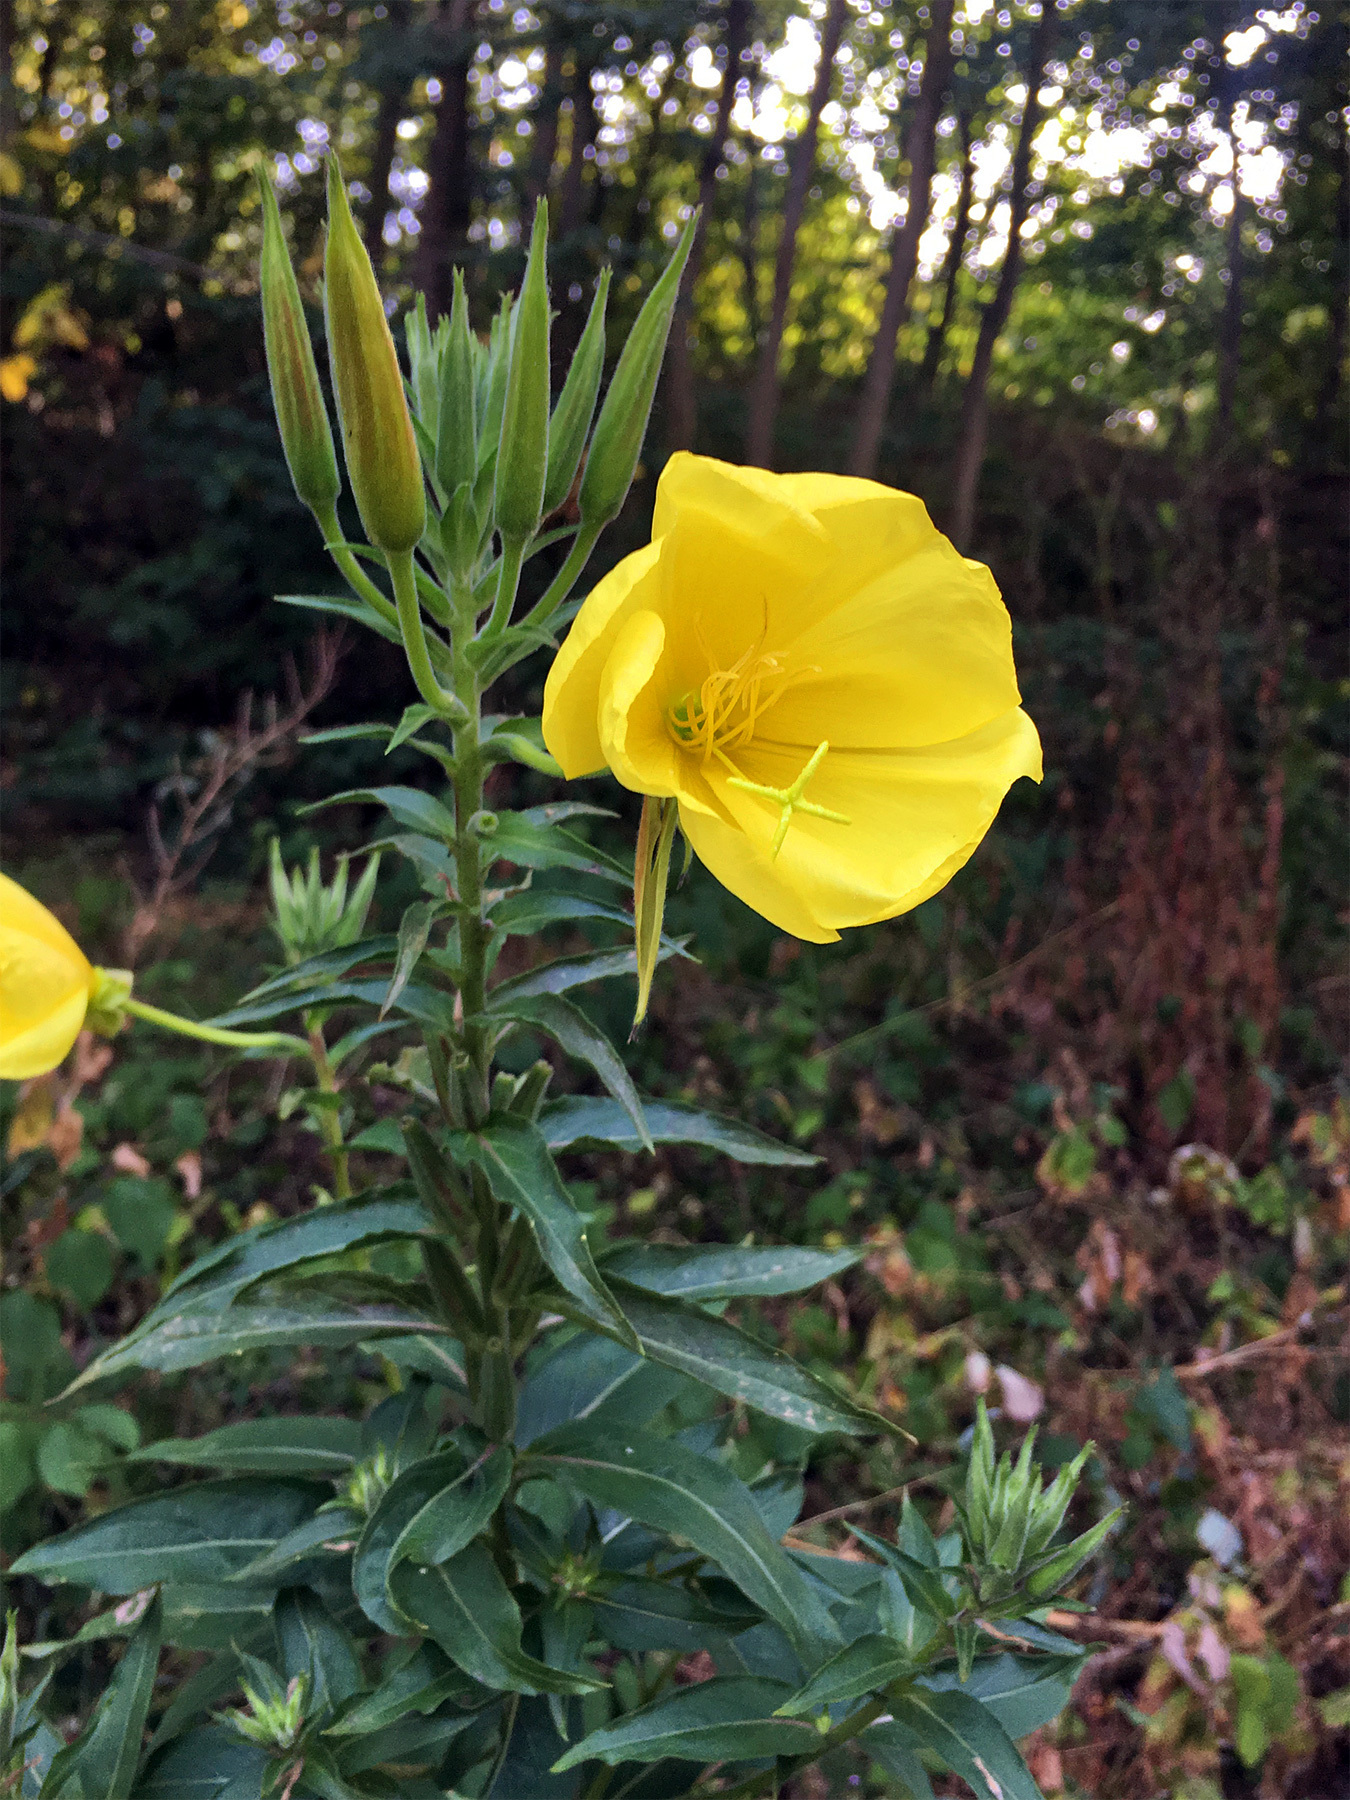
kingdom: Plantae
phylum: Tracheophyta
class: Magnoliopsida
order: Myrtales
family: Onagraceae
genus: Oenothera
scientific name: Oenothera biennis
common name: Common evening-primrose
